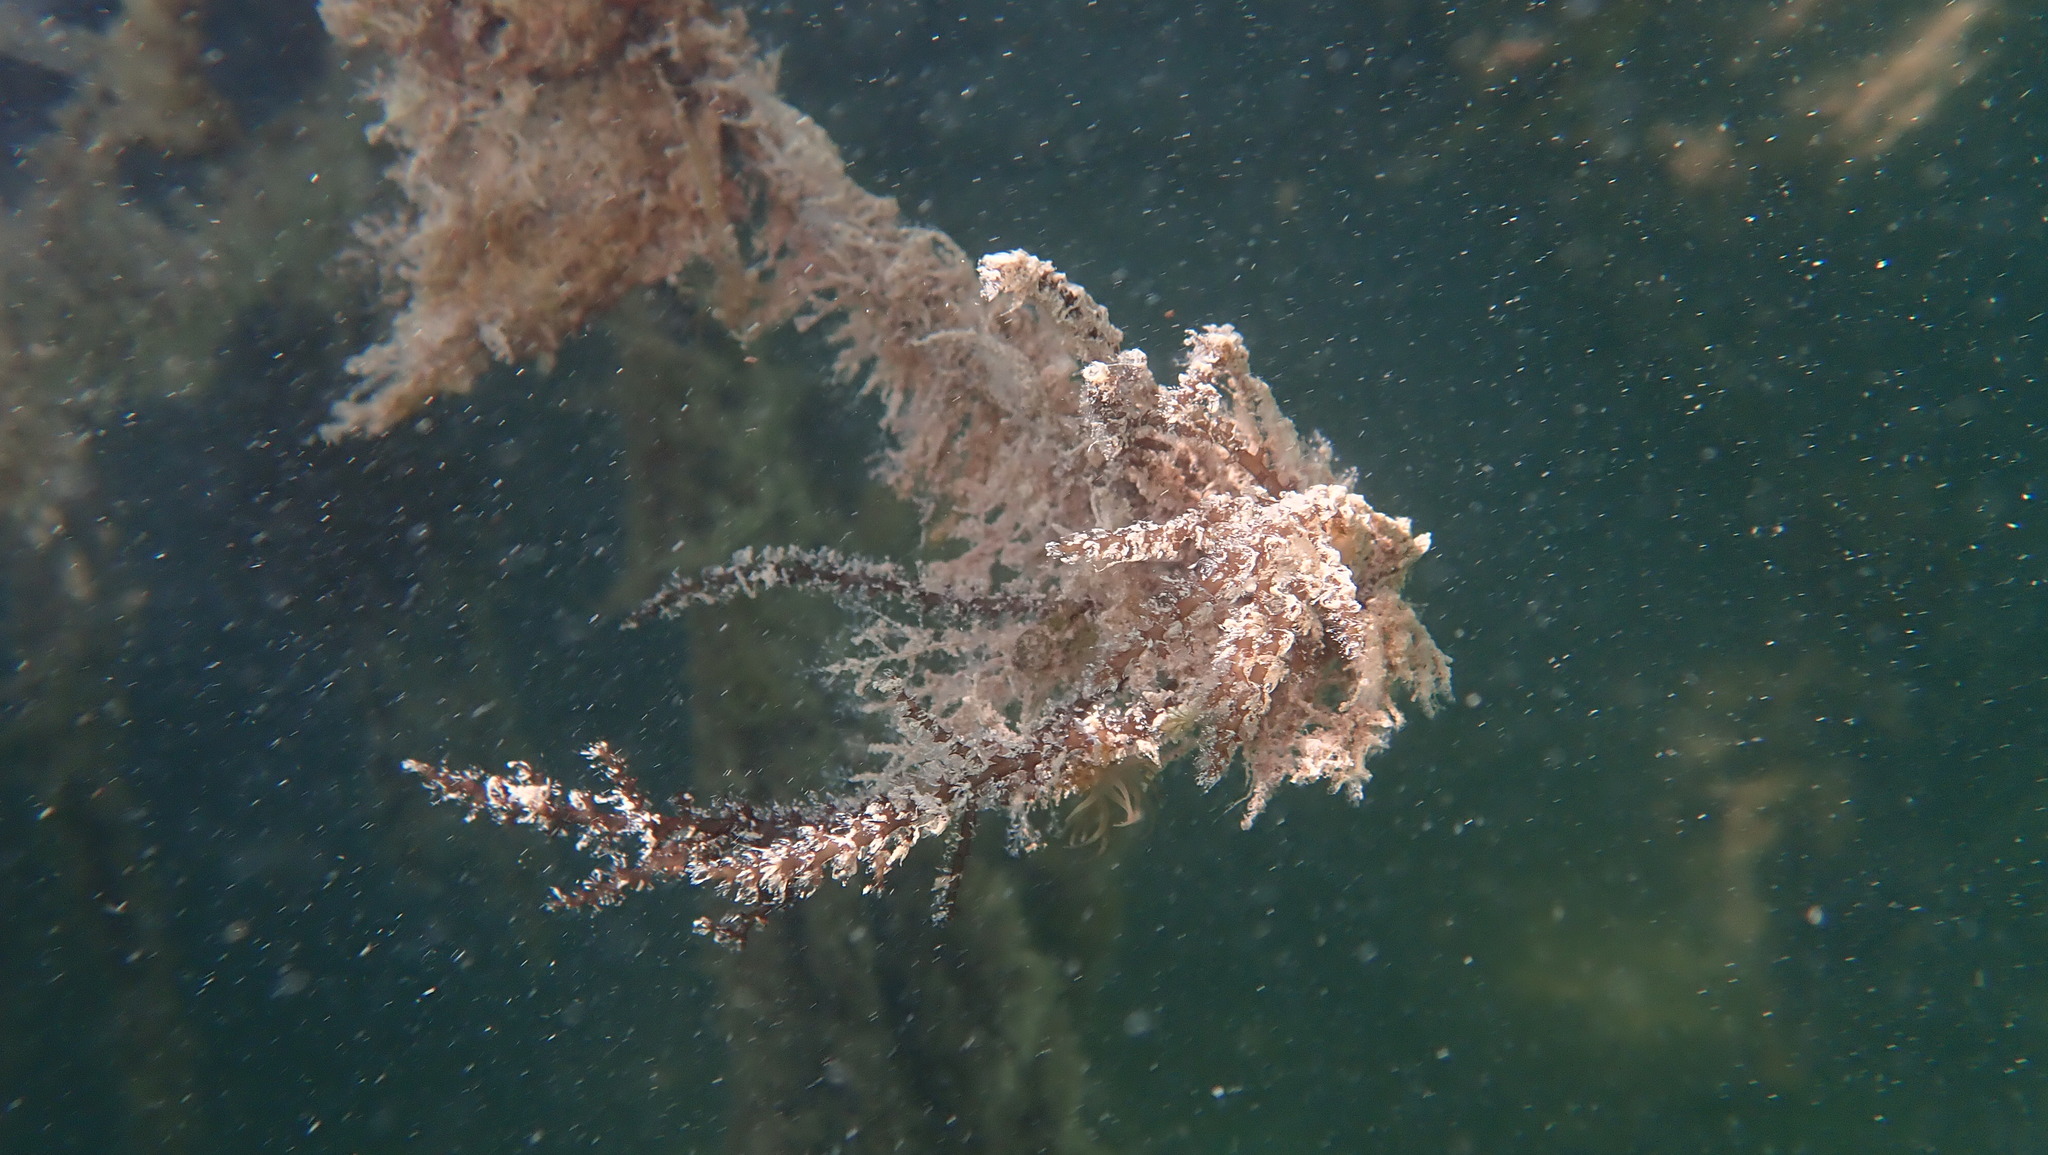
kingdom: Animalia
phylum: Cnidaria
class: Hydrozoa
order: Anthoathecata
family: Pennariidae
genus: Pennaria
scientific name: Pennaria disticha
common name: Feather hydroid
